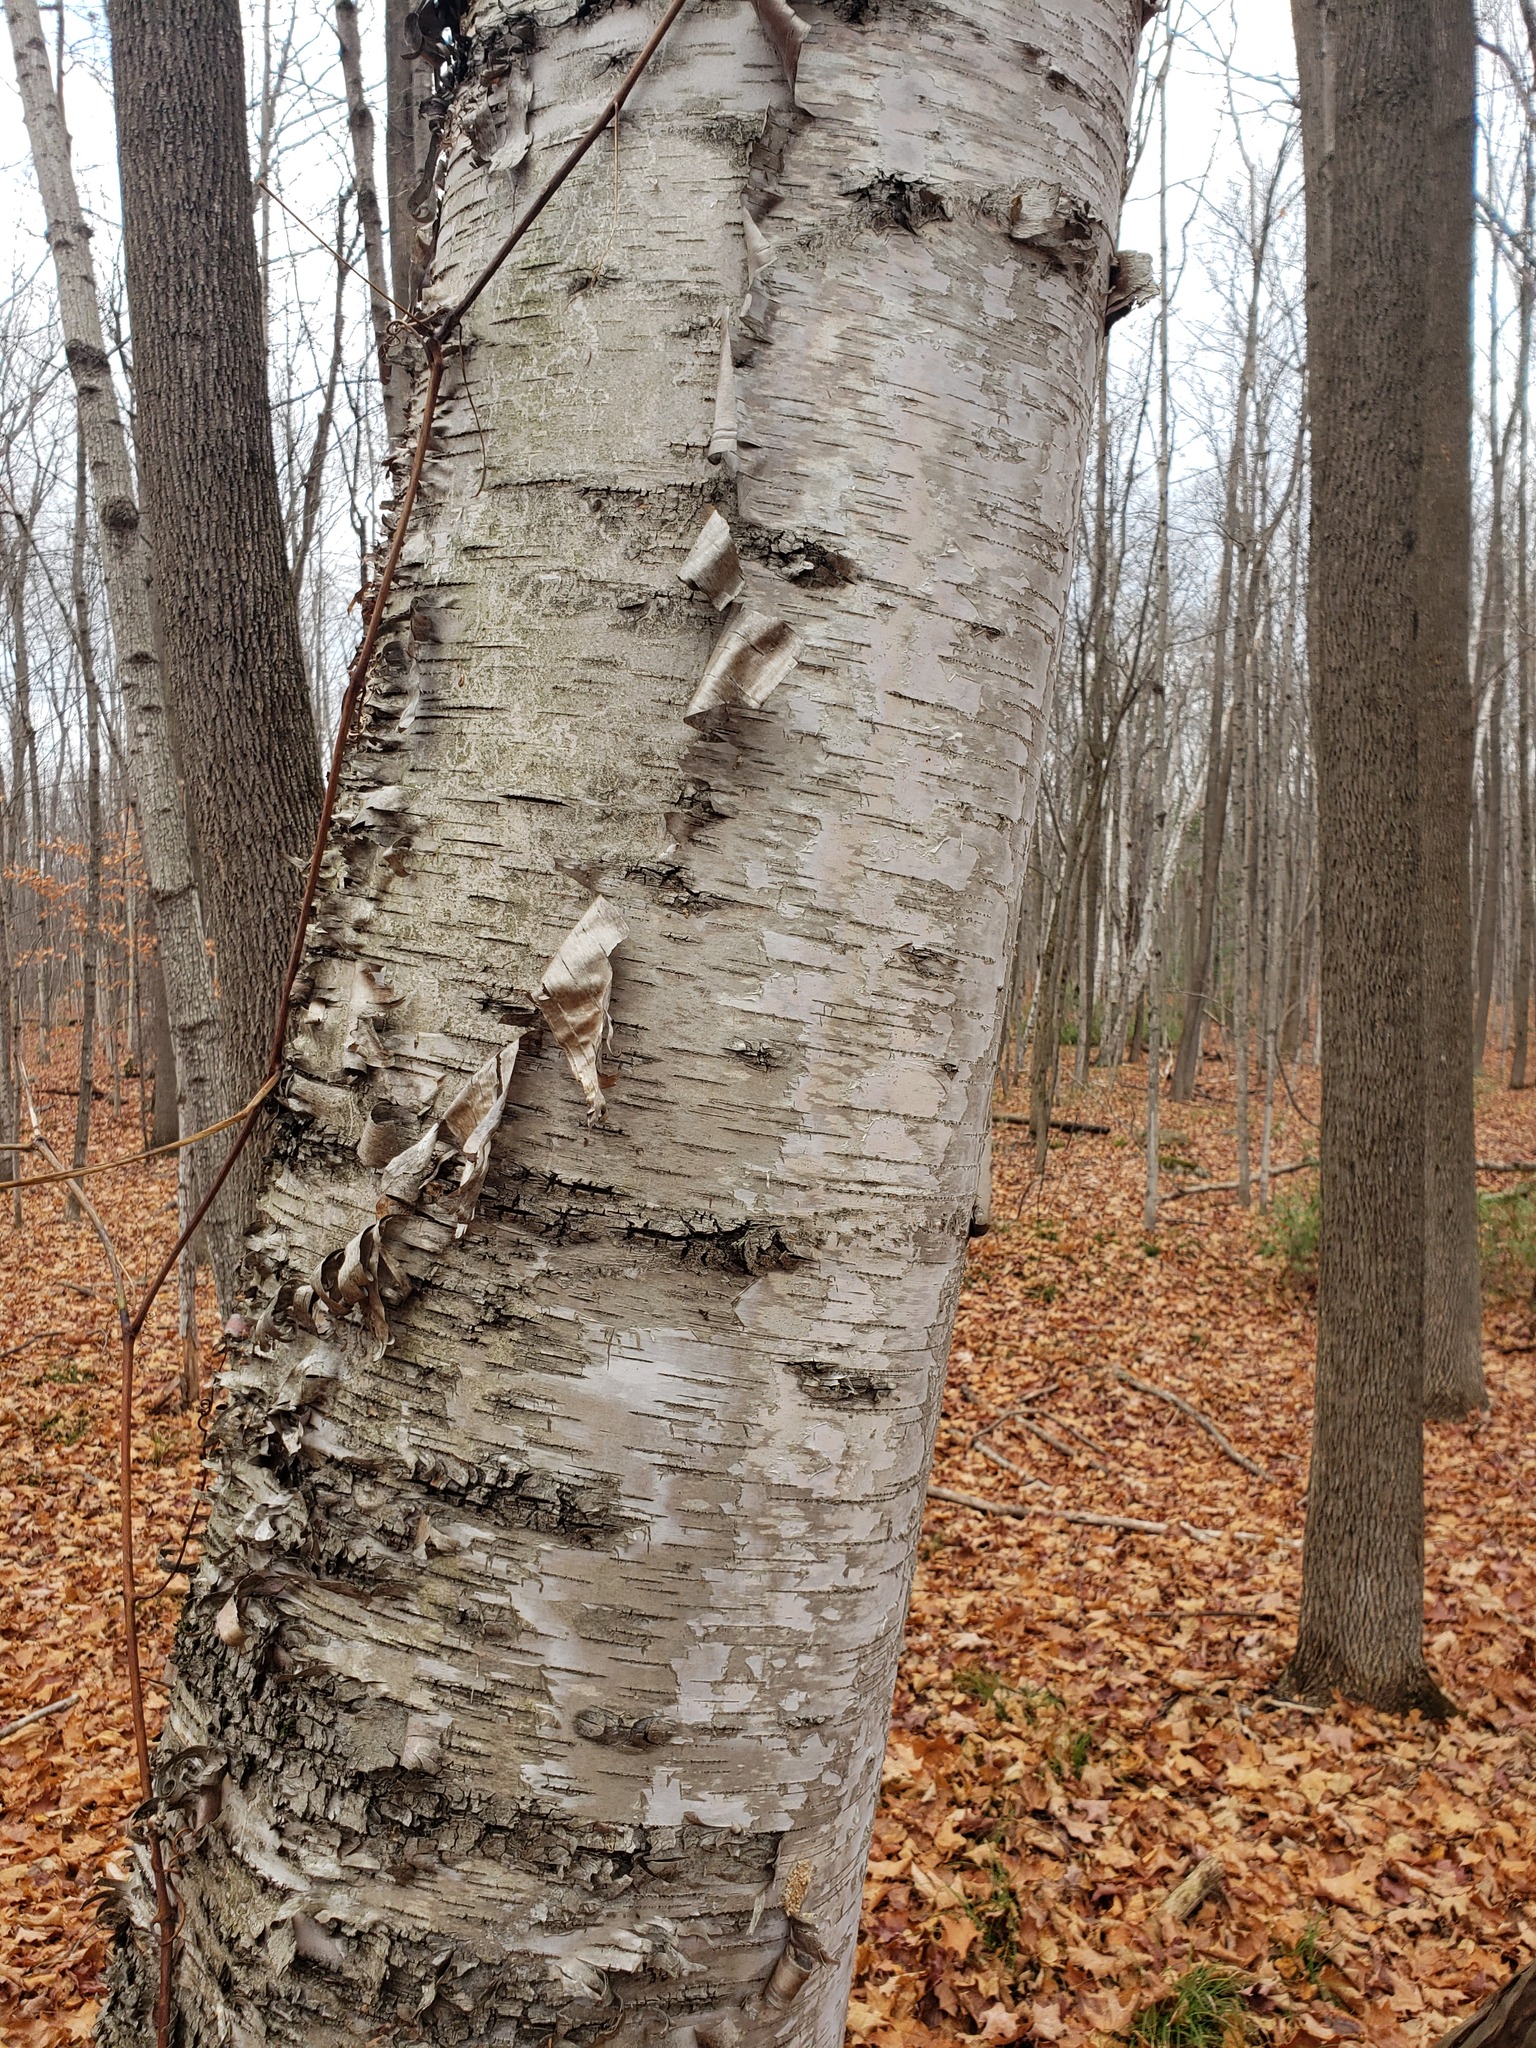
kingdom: Plantae
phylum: Tracheophyta
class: Magnoliopsida
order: Fagales
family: Betulaceae
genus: Betula
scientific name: Betula papyrifera
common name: Paper birch
